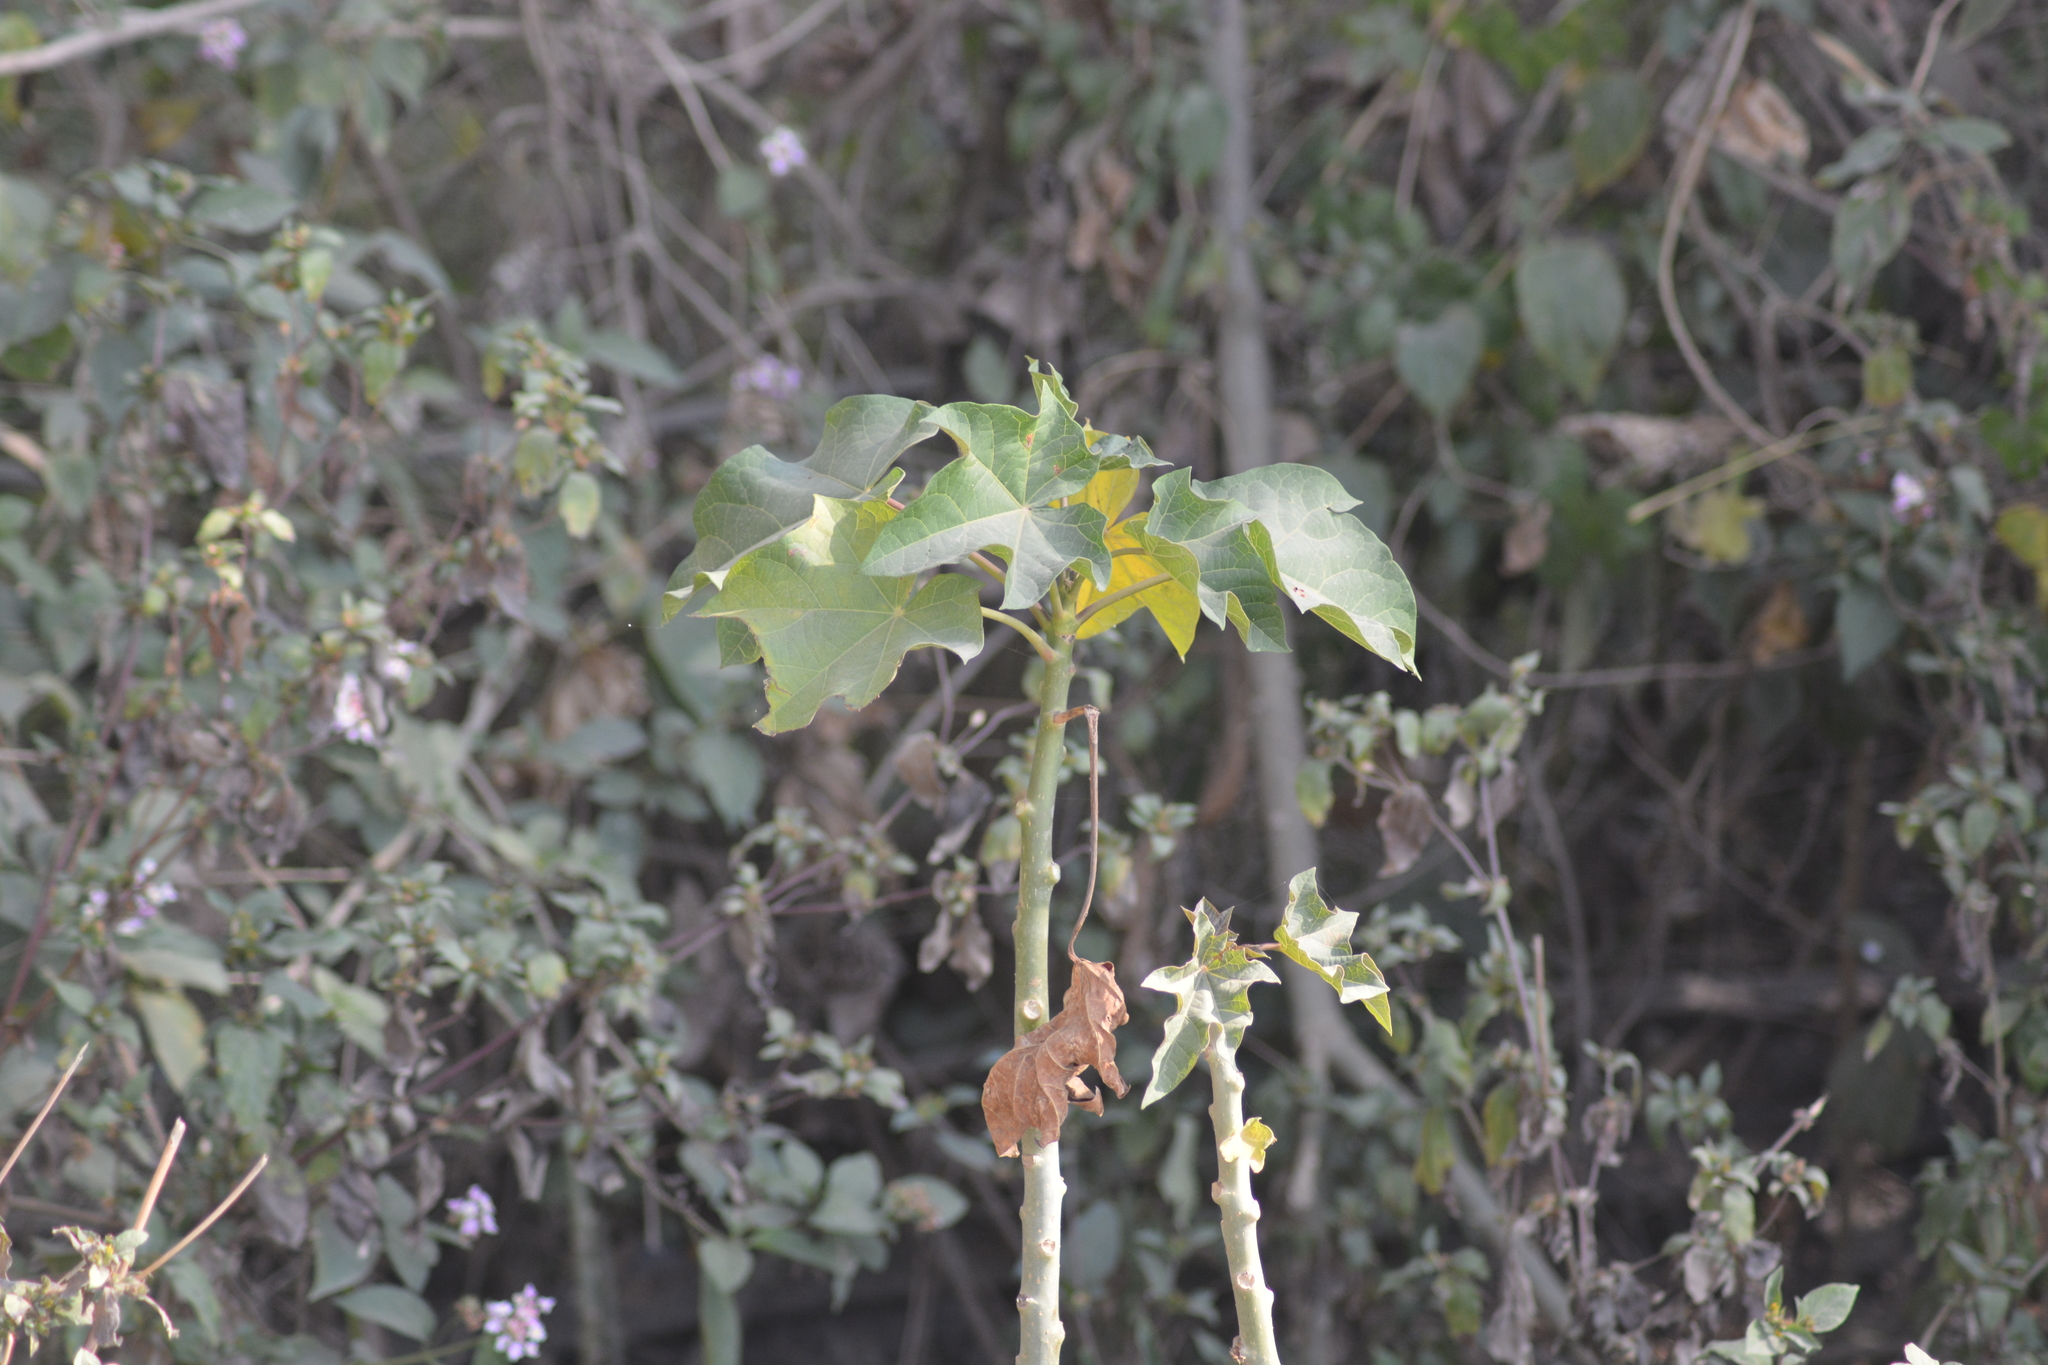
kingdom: Plantae
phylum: Tracheophyta
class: Magnoliopsida
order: Solanales
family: Solanaceae
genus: Solanum
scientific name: Solanum torvum
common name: Turkey berry
